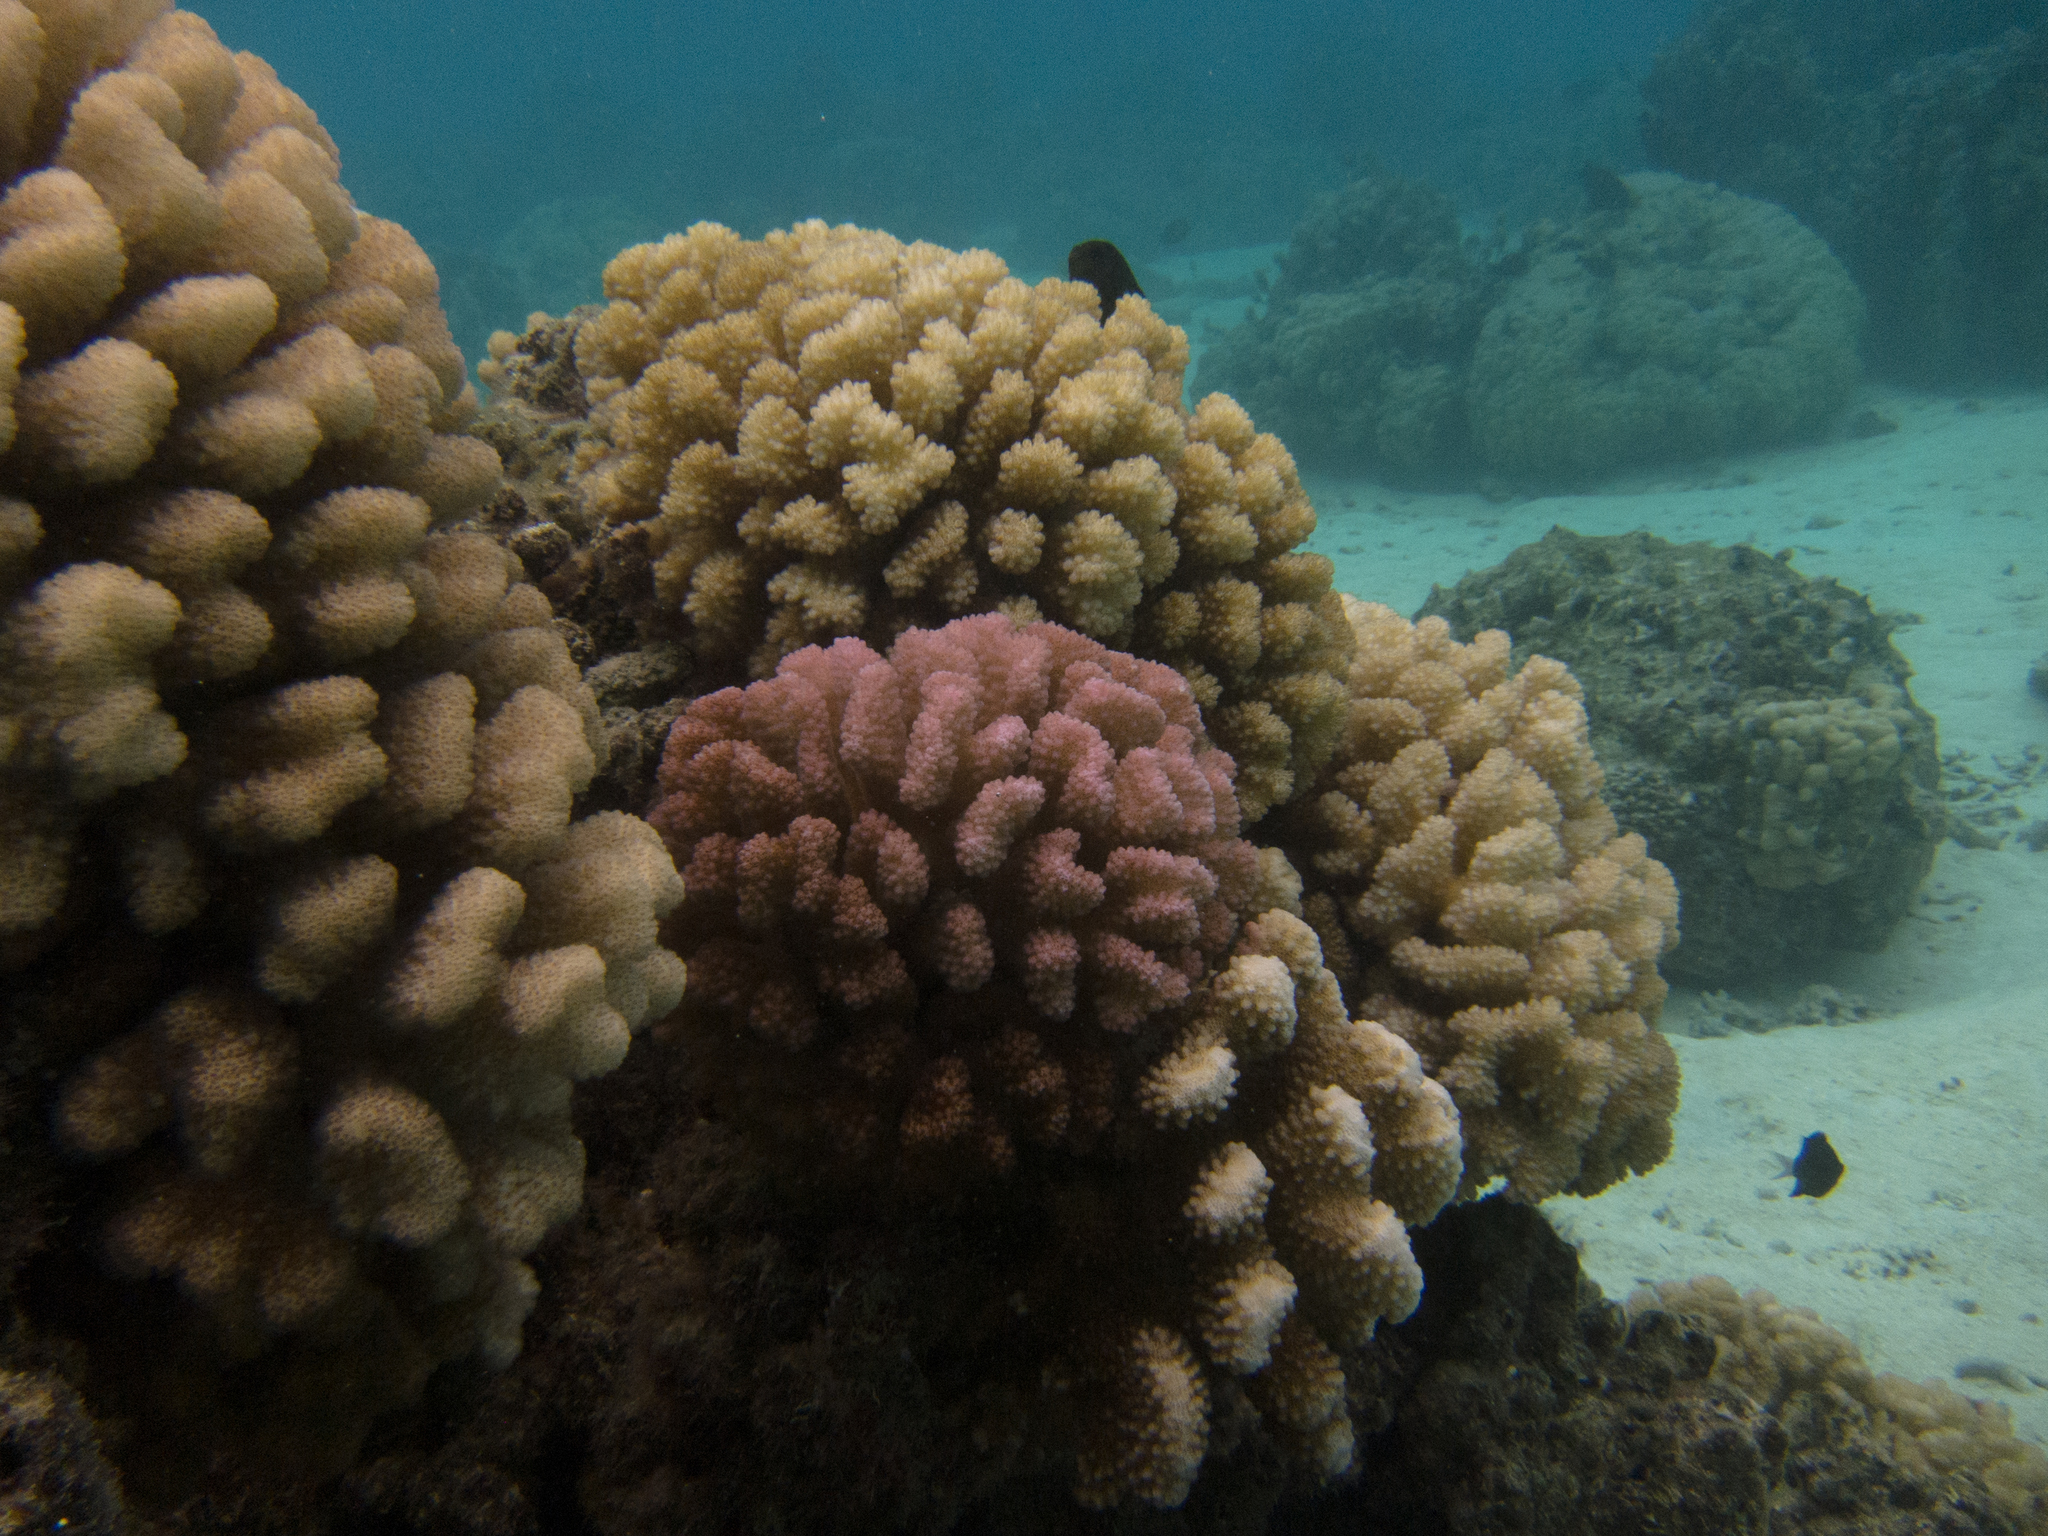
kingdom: Animalia
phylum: Chordata
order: Perciformes
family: Pomacentridae
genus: Pycnochromis
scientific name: Pycnochromis margaritifer
